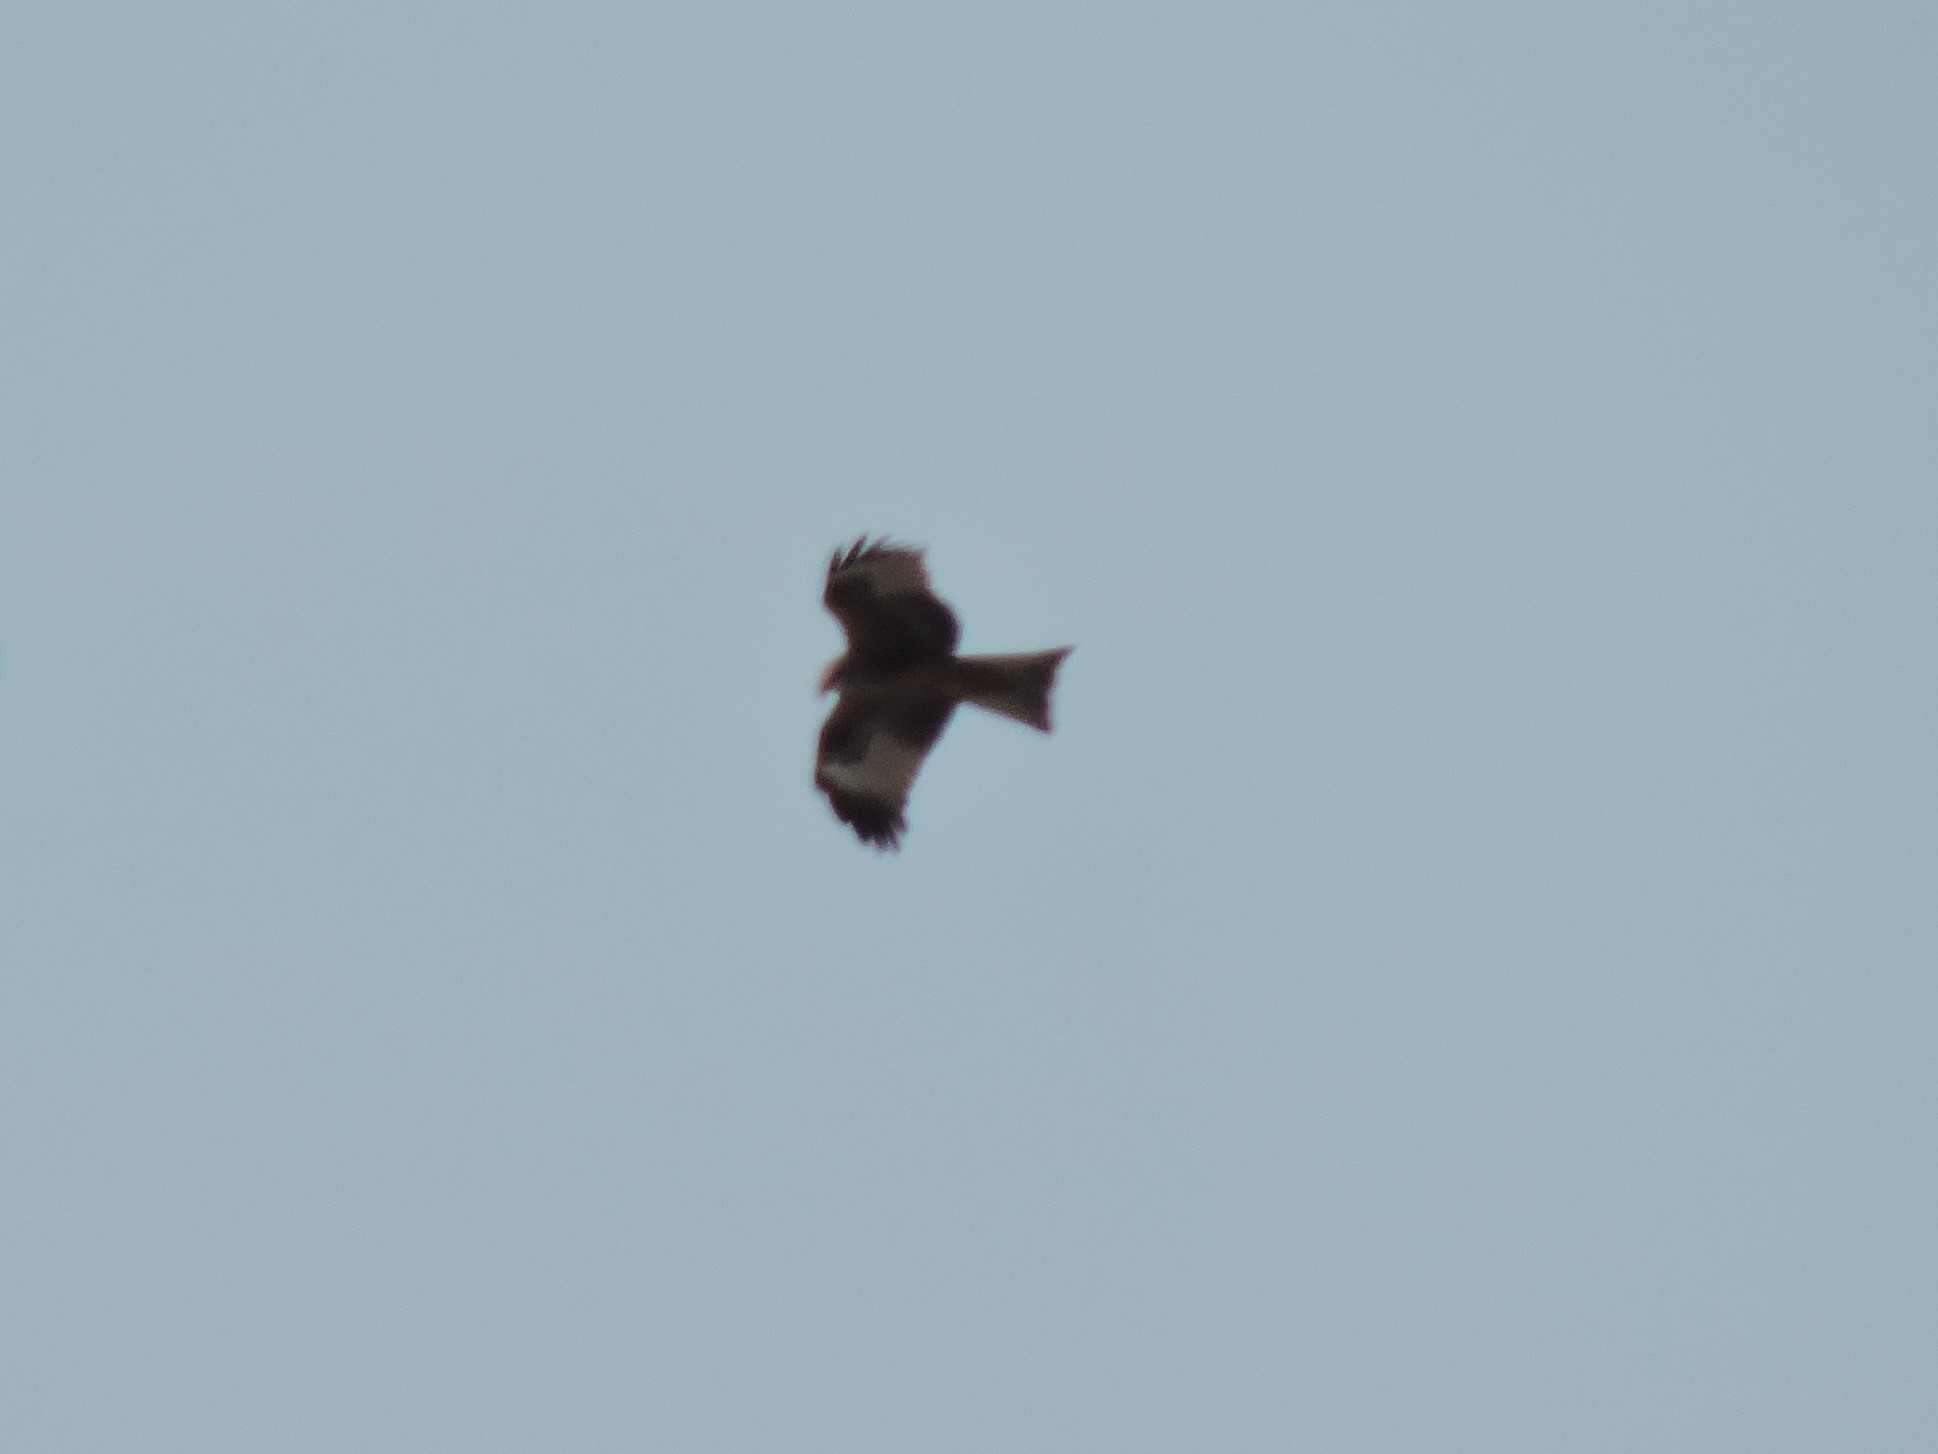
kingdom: Animalia
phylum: Chordata
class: Aves
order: Accipitriformes
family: Accipitridae
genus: Milvus
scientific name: Milvus migrans
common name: Black kite
